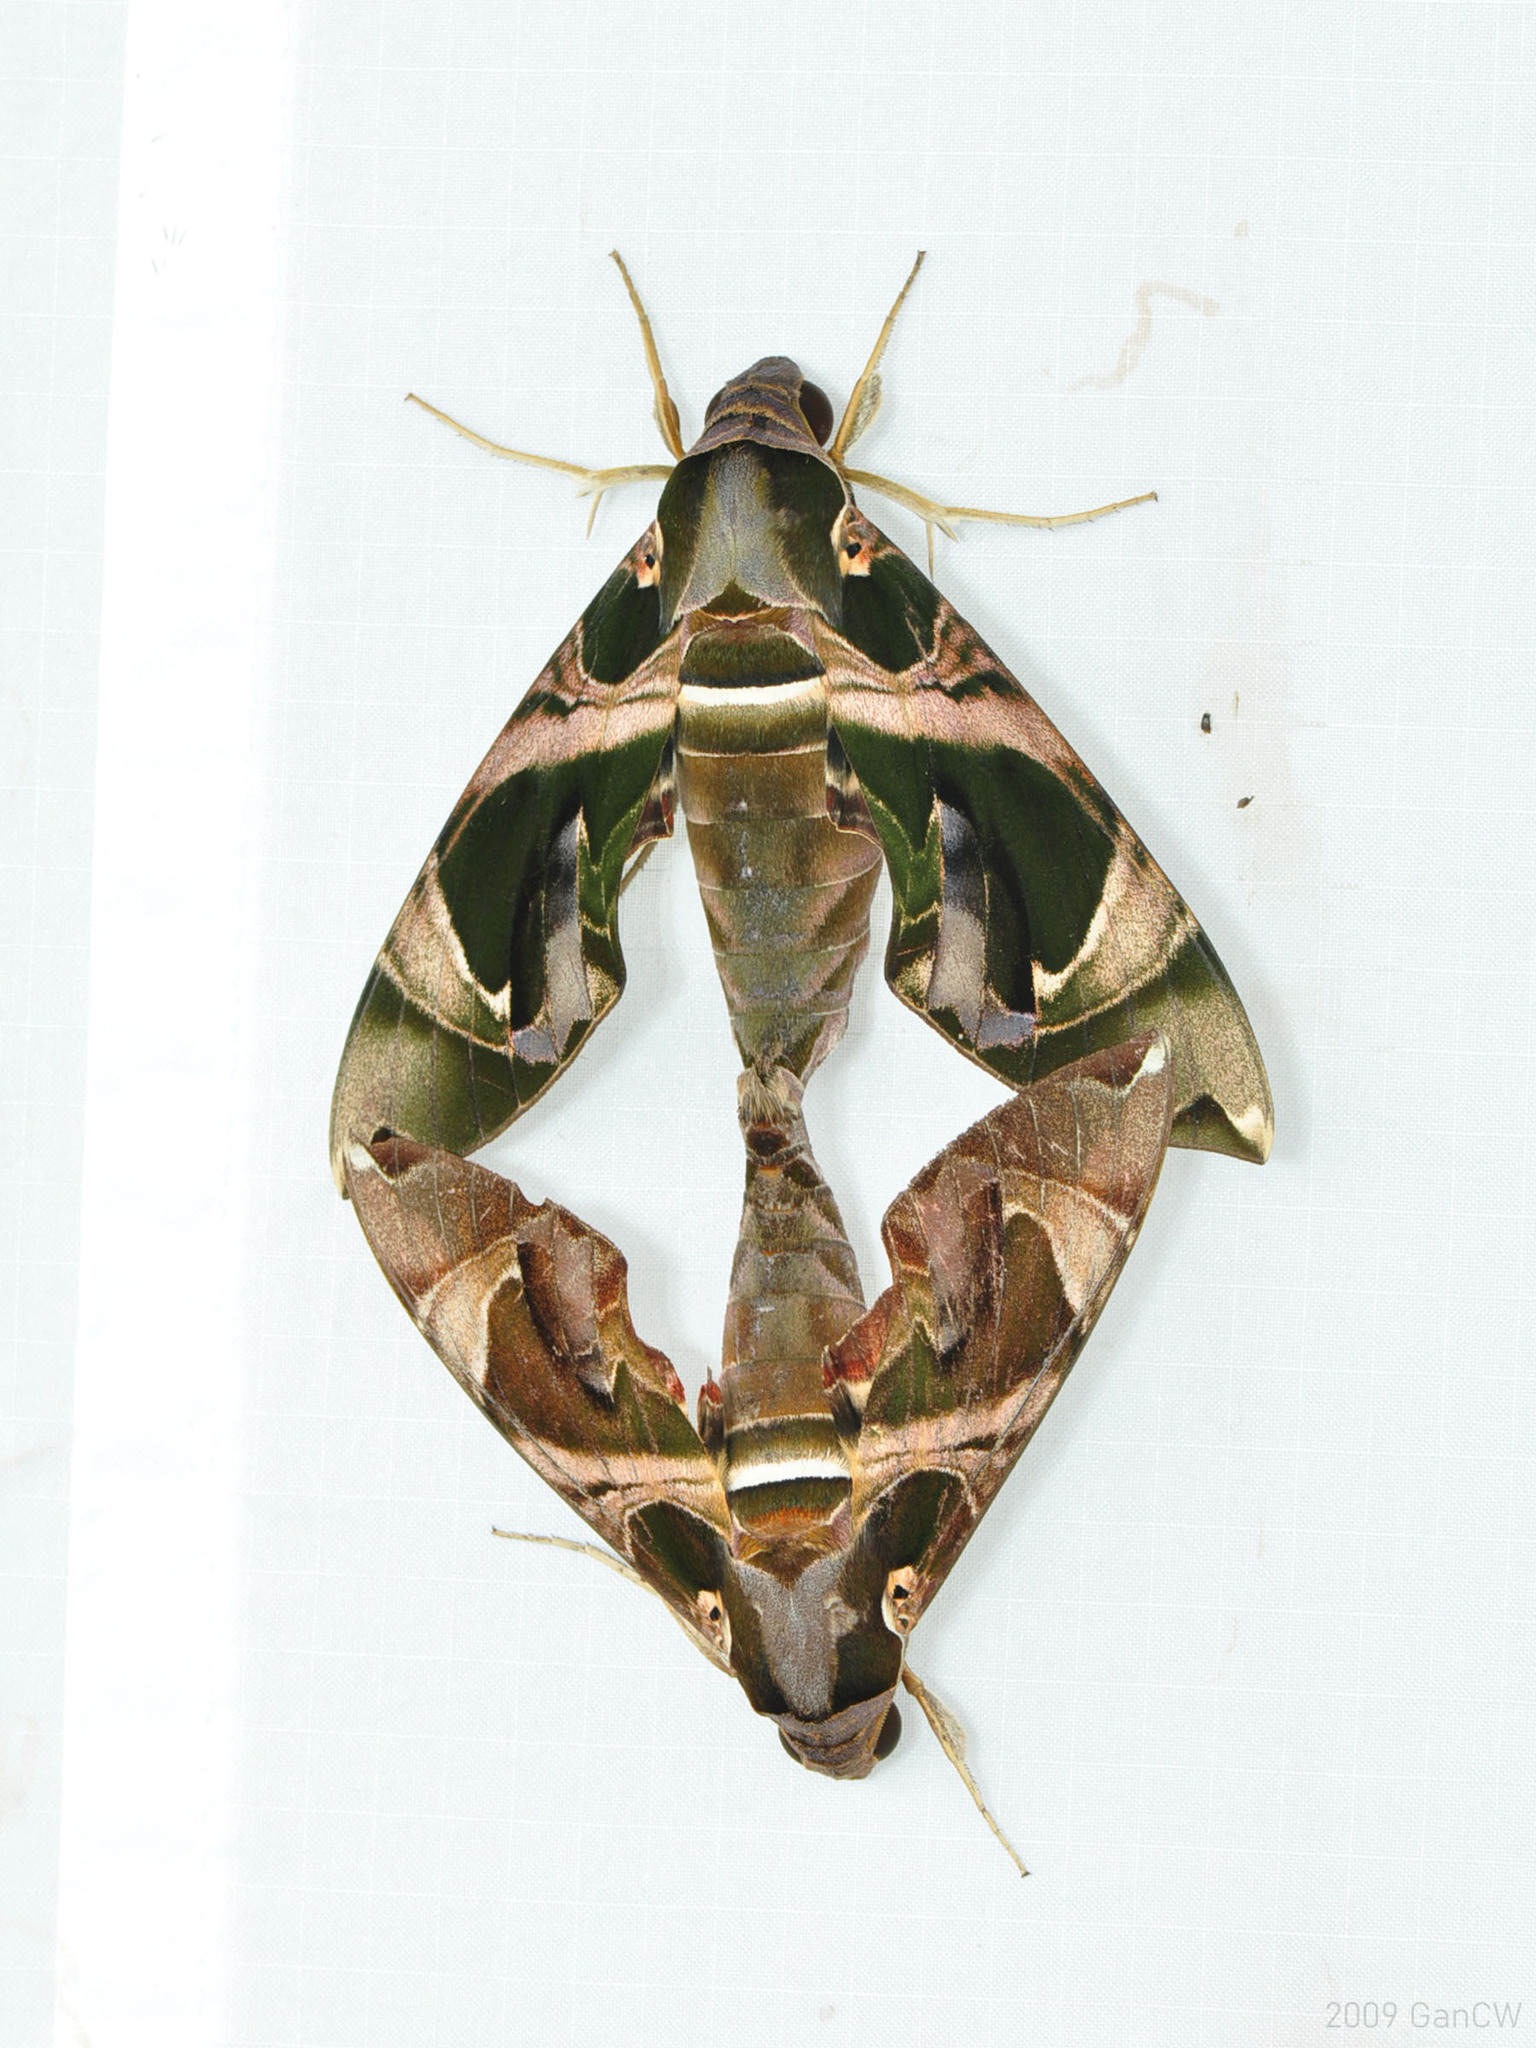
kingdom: Animalia
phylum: Arthropoda
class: Insecta
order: Lepidoptera
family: Sphingidae
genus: Daphnis
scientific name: Daphnis hypothous
